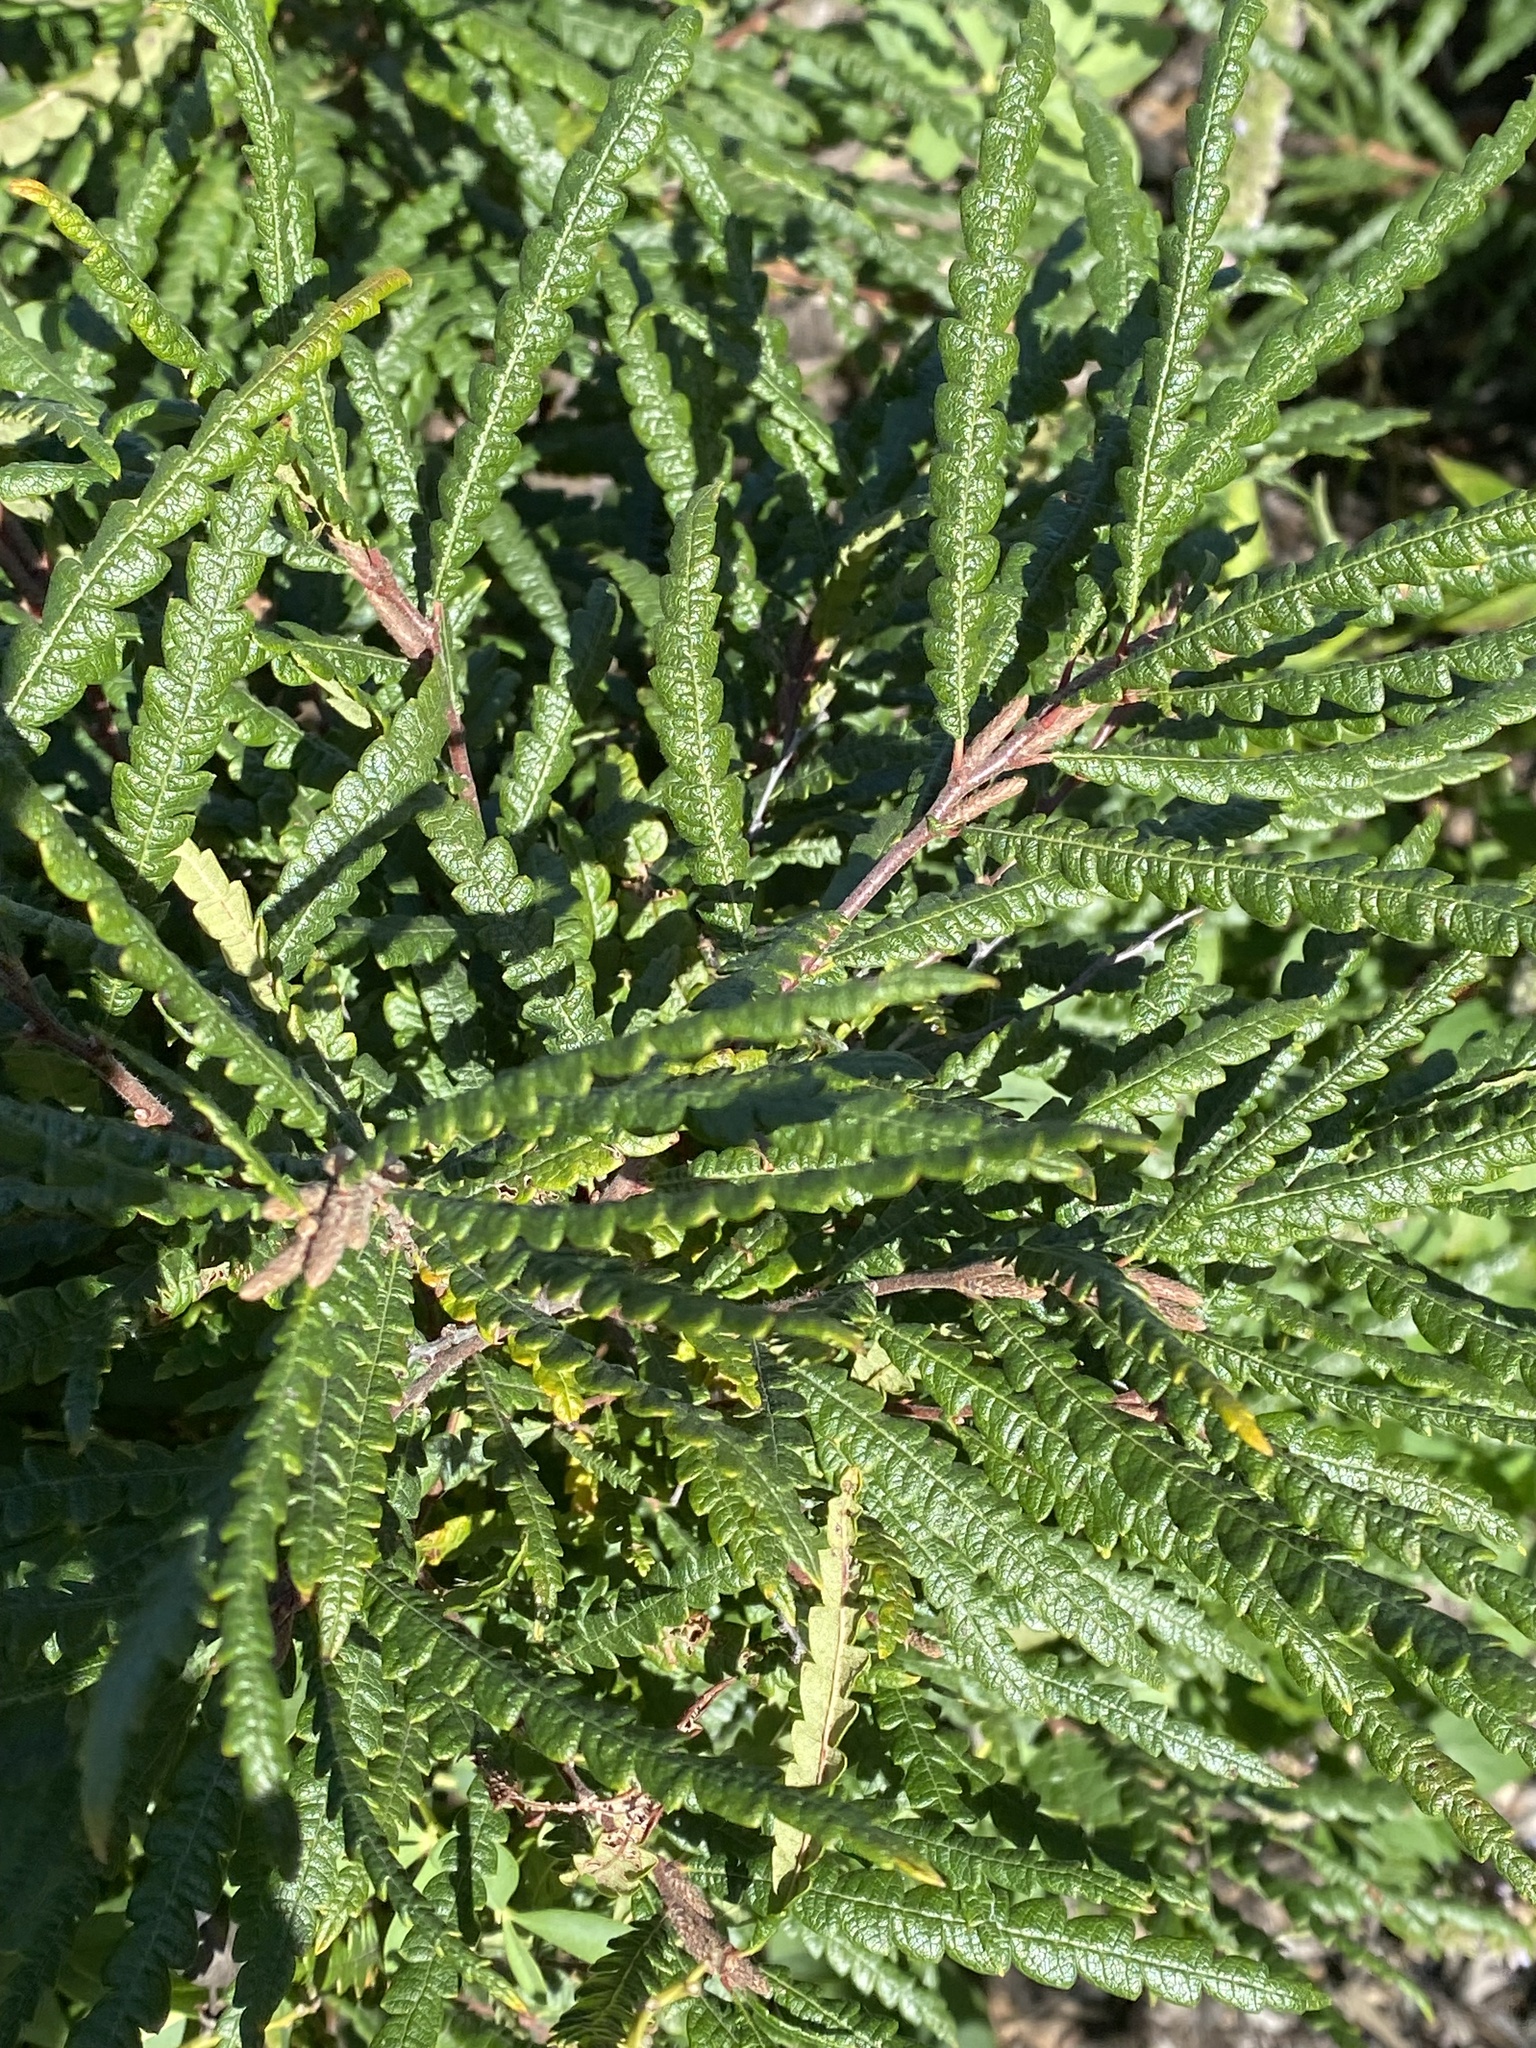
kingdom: Plantae
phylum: Tracheophyta
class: Magnoliopsida
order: Fagales
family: Myricaceae
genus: Comptonia
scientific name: Comptonia peregrina
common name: Sweet-fern
